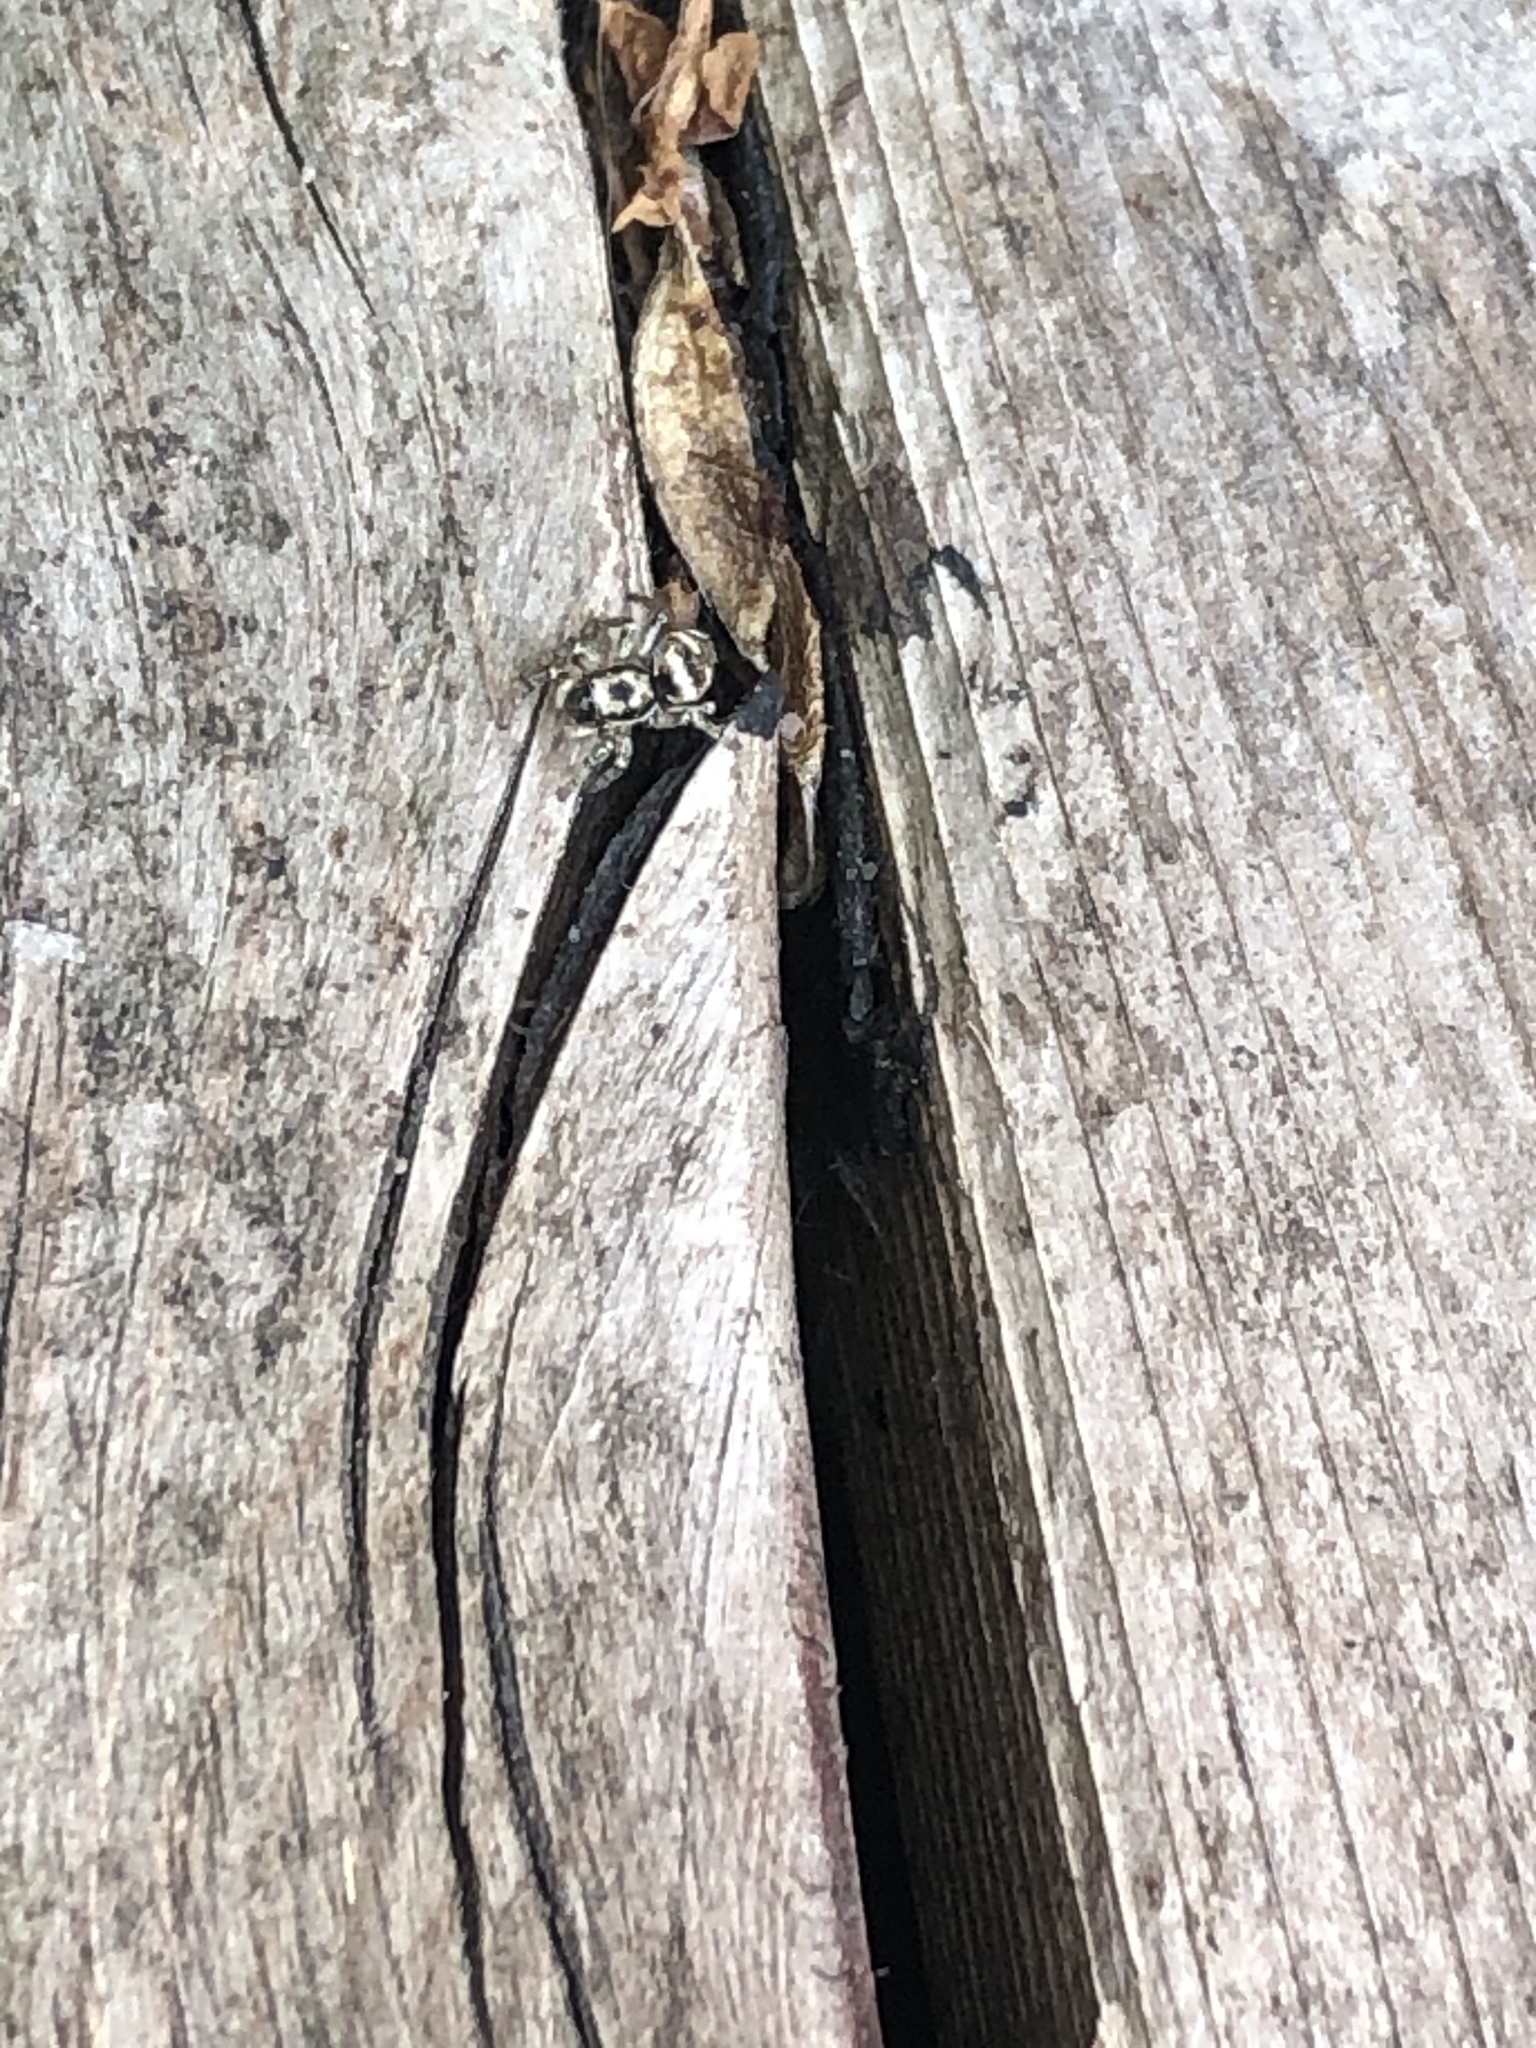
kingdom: Animalia
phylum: Arthropoda
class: Arachnida
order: Araneae
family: Salticidae
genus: Salticus
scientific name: Salticus scenicus
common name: Zebra jumper
